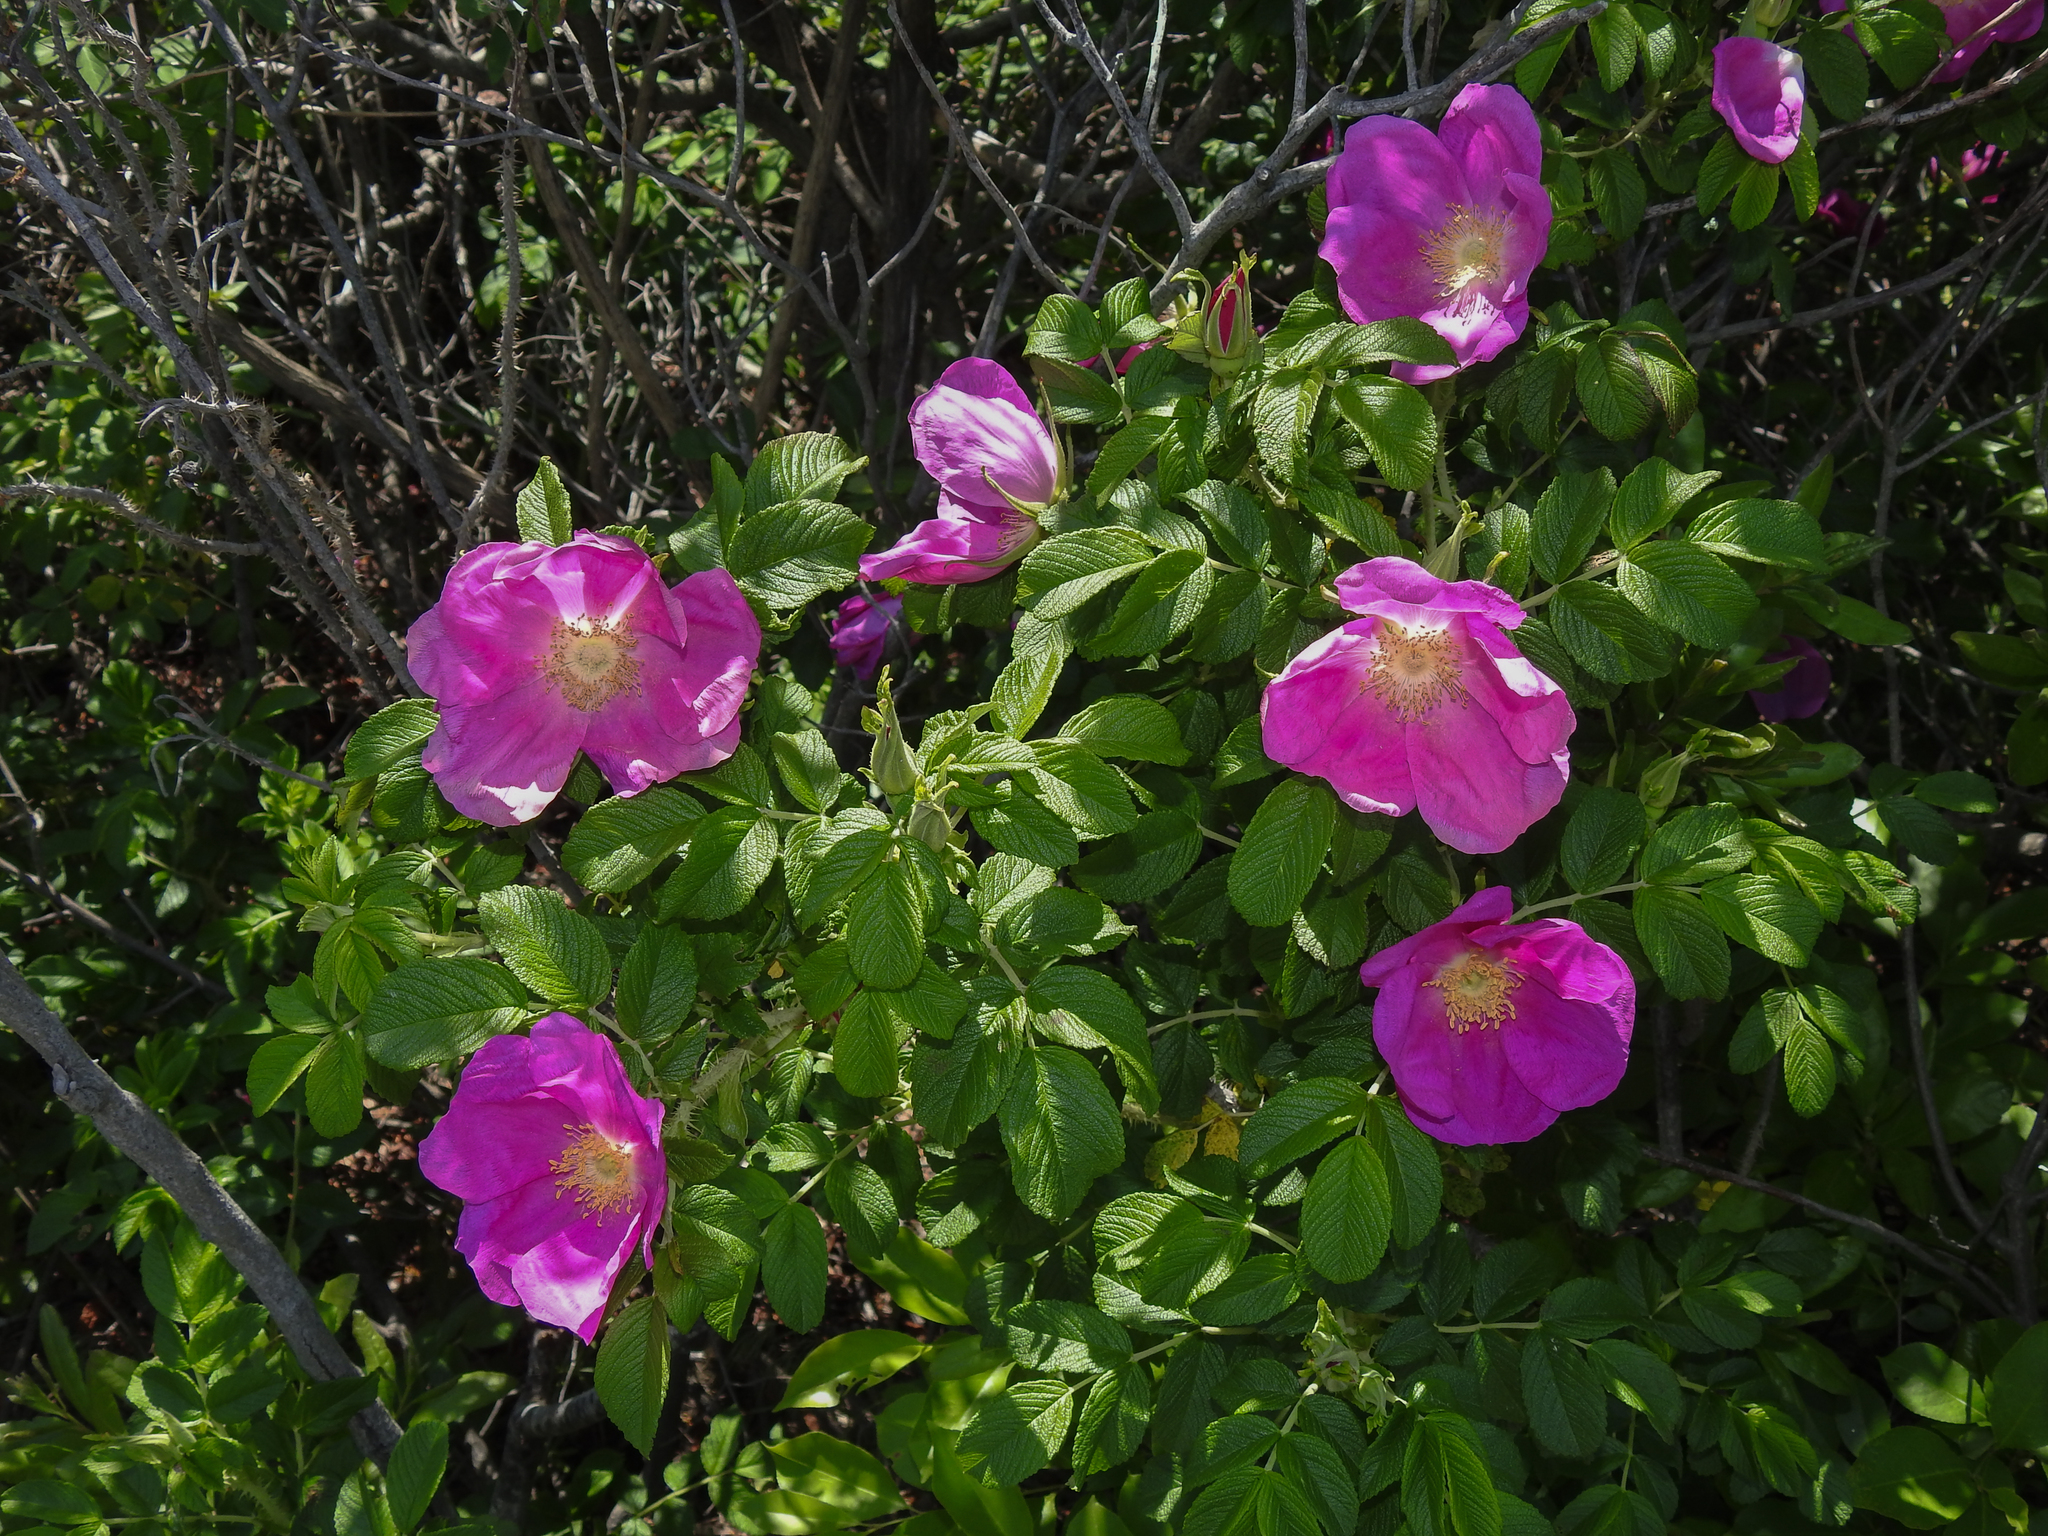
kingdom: Plantae
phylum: Tracheophyta
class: Magnoliopsida
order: Rosales
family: Rosaceae
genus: Rosa
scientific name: Rosa rugosa
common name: Japanese rose
